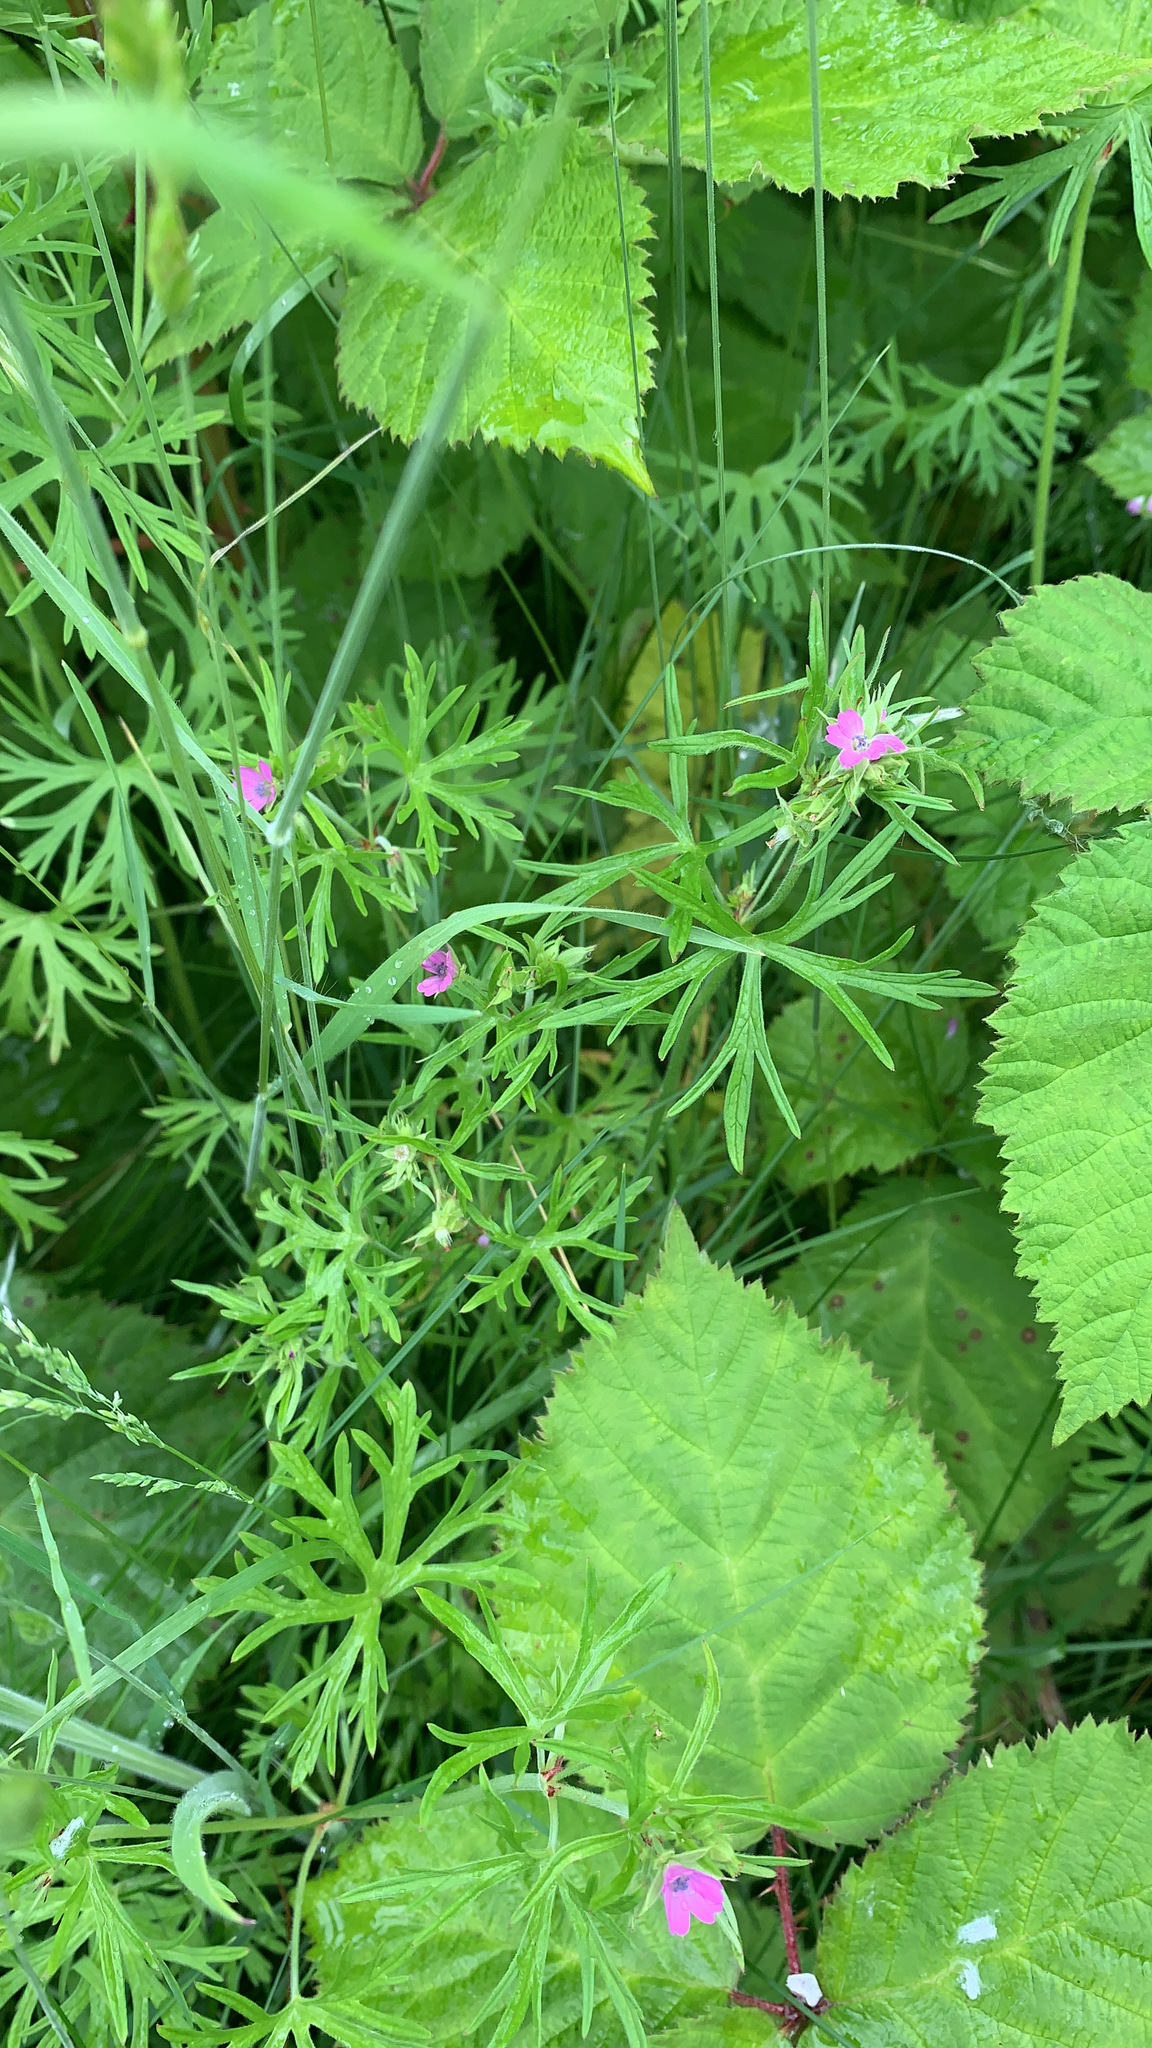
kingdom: Plantae
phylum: Tracheophyta
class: Magnoliopsida
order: Geraniales
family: Geraniaceae
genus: Geranium
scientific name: Geranium dissectum
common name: Cut-leaved crane's-bill
